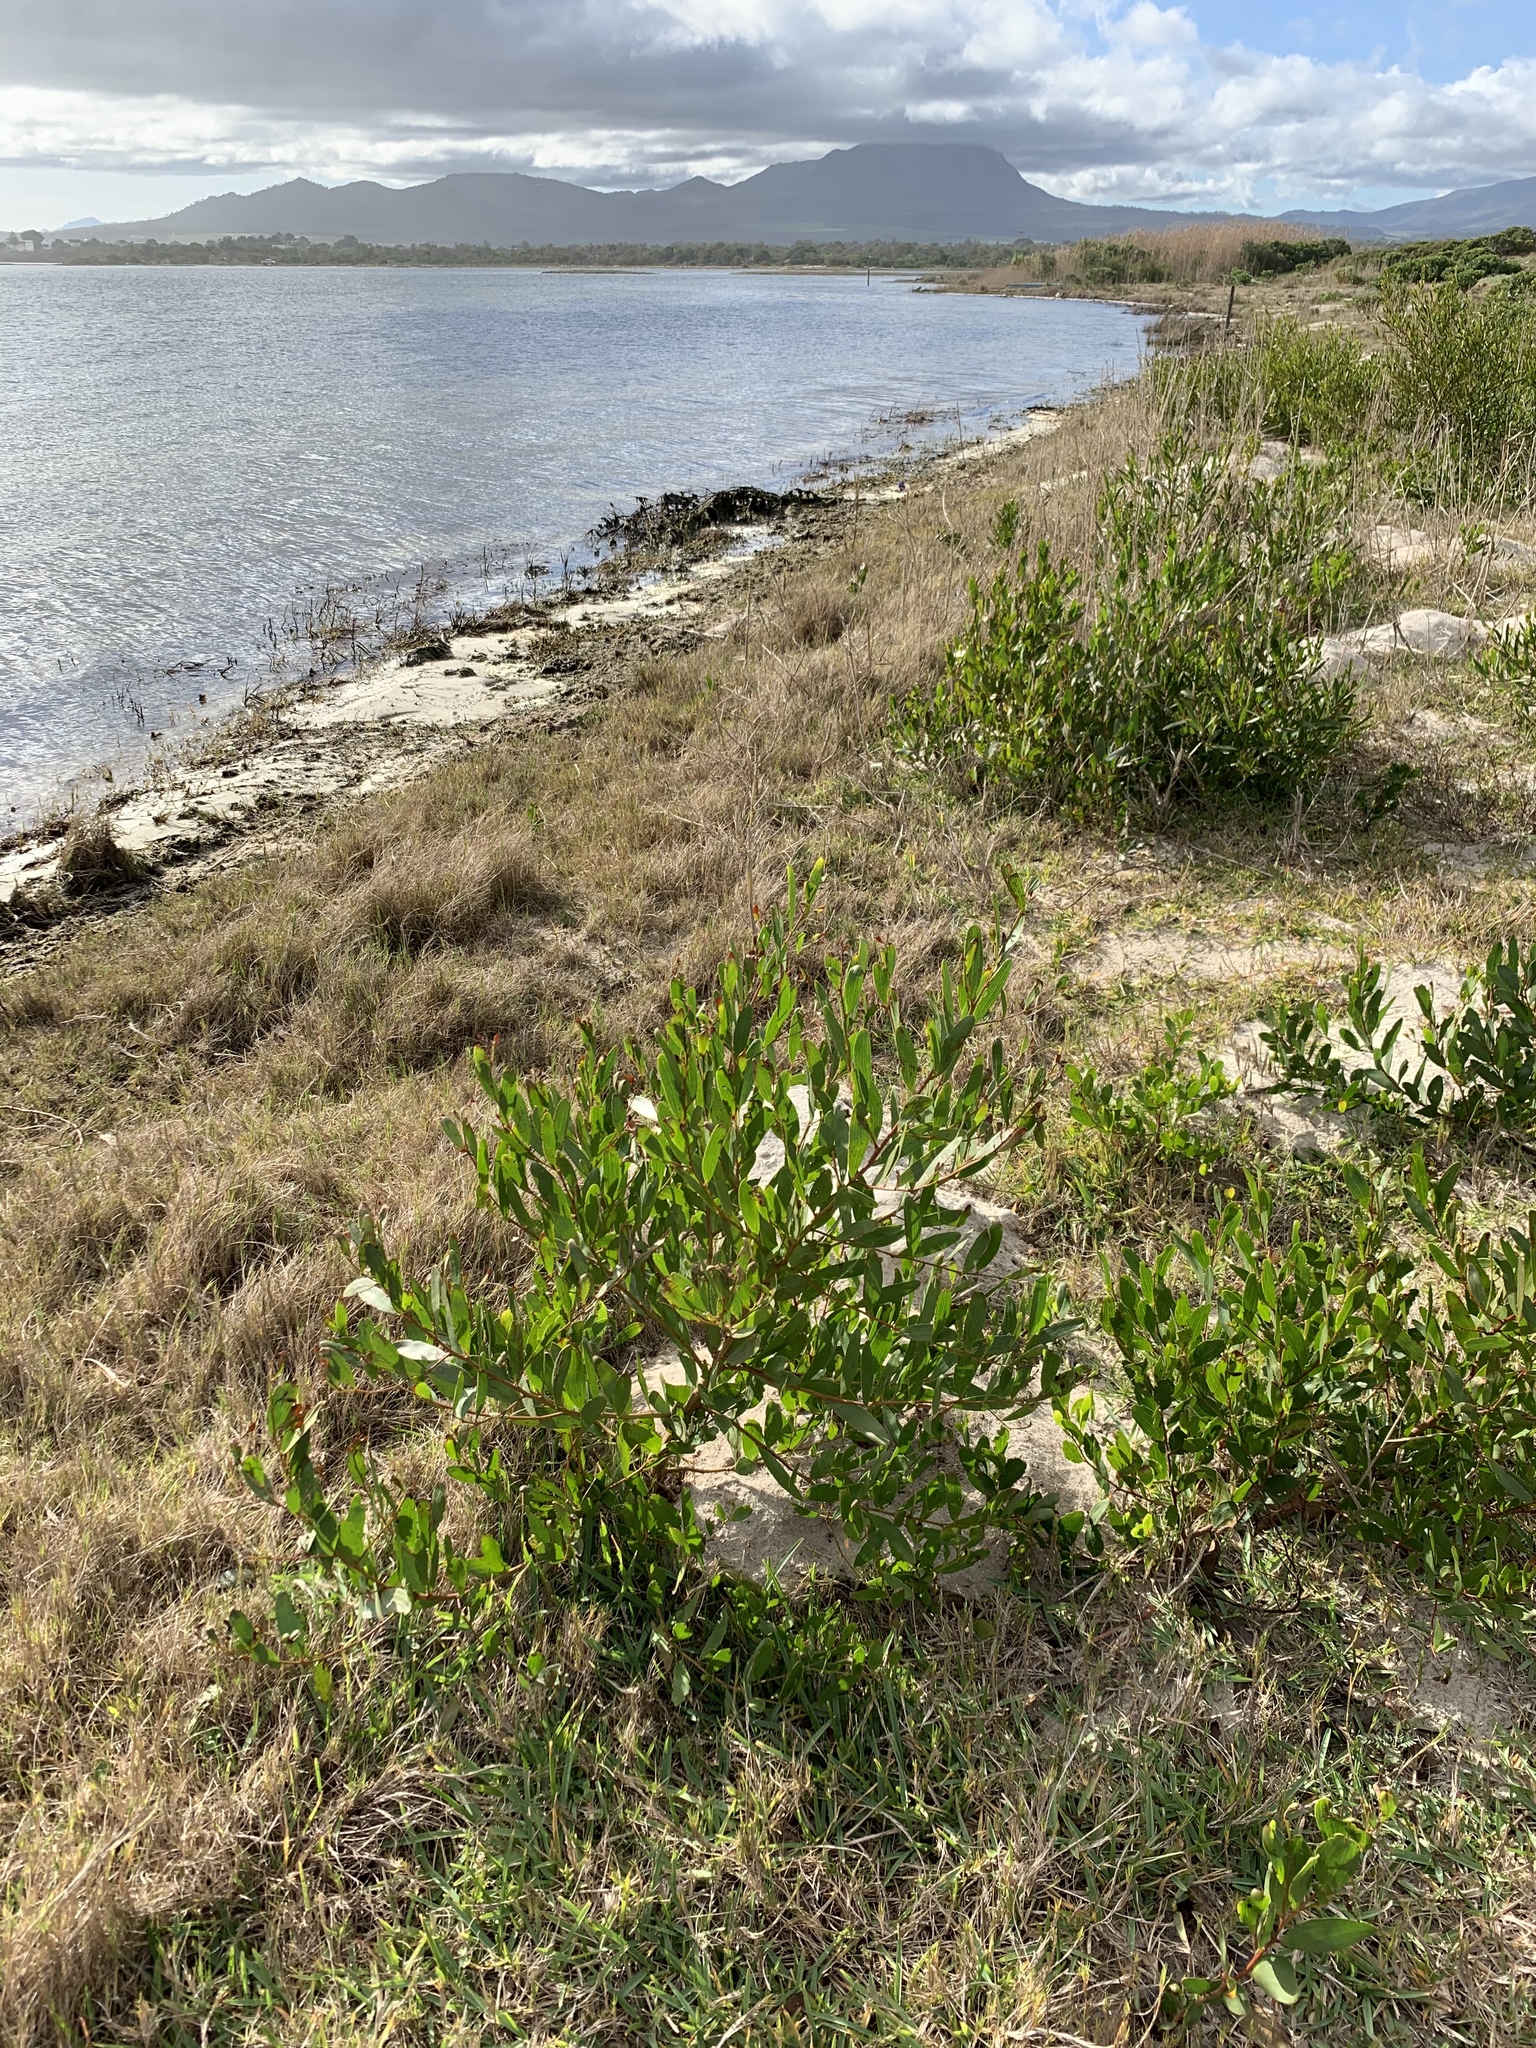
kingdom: Plantae
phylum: Tracheophyta
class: Magnoliopsida
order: Fabales
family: Fabaceae
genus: Acacia
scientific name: Acacia cyclops
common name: Coastal wattle
